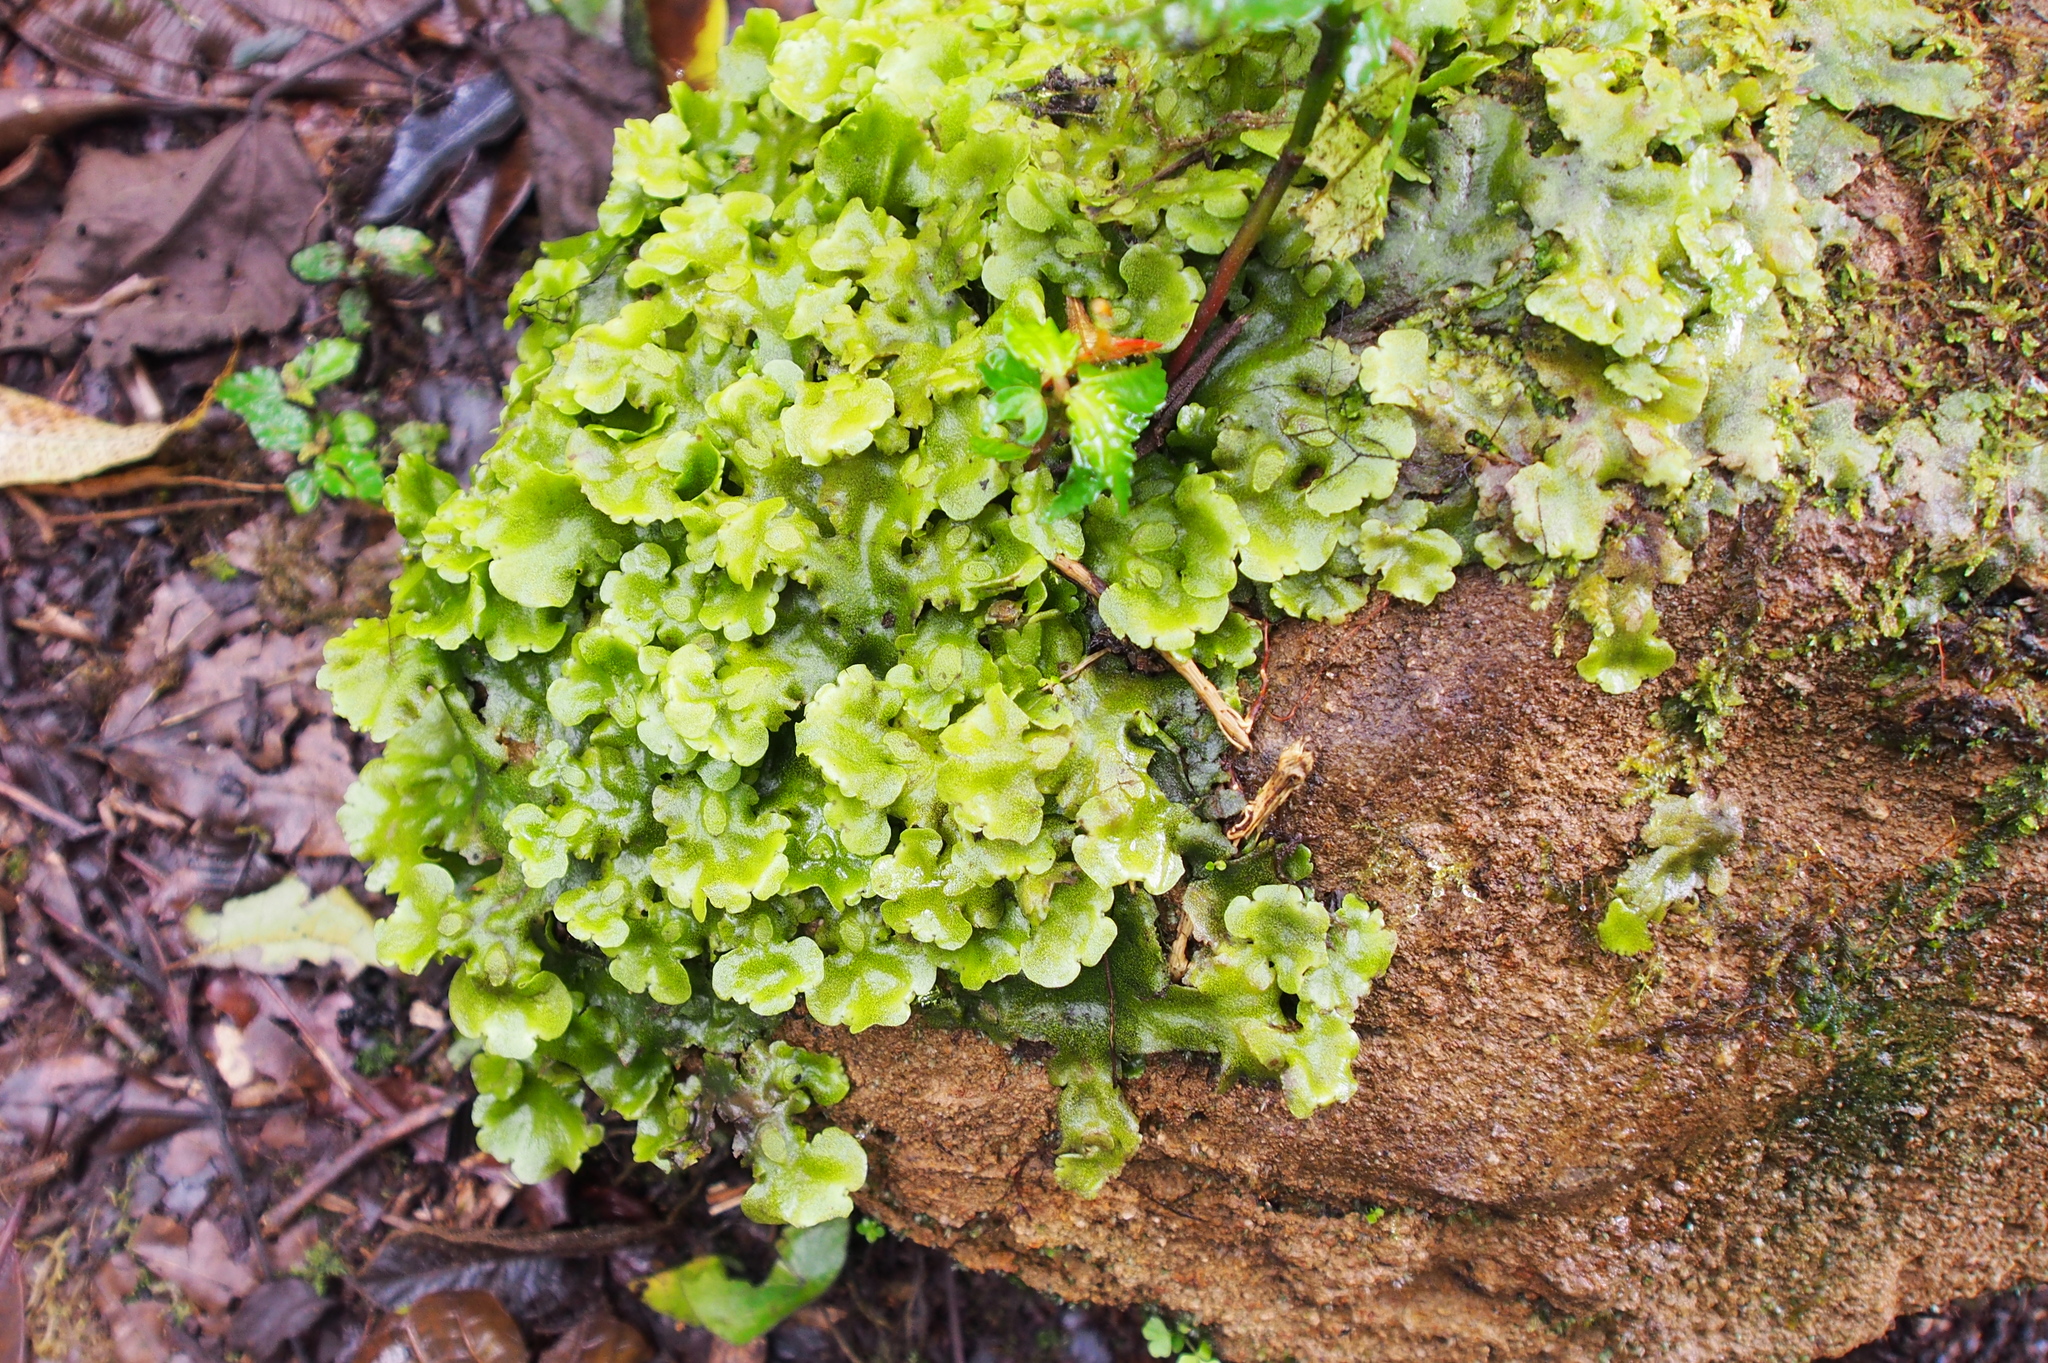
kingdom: Plantae
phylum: Marchantiophyta
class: Marchantiopsida
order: Marchantiales
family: Monocleaceae
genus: Monoclea
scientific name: Monoclea gottschei
